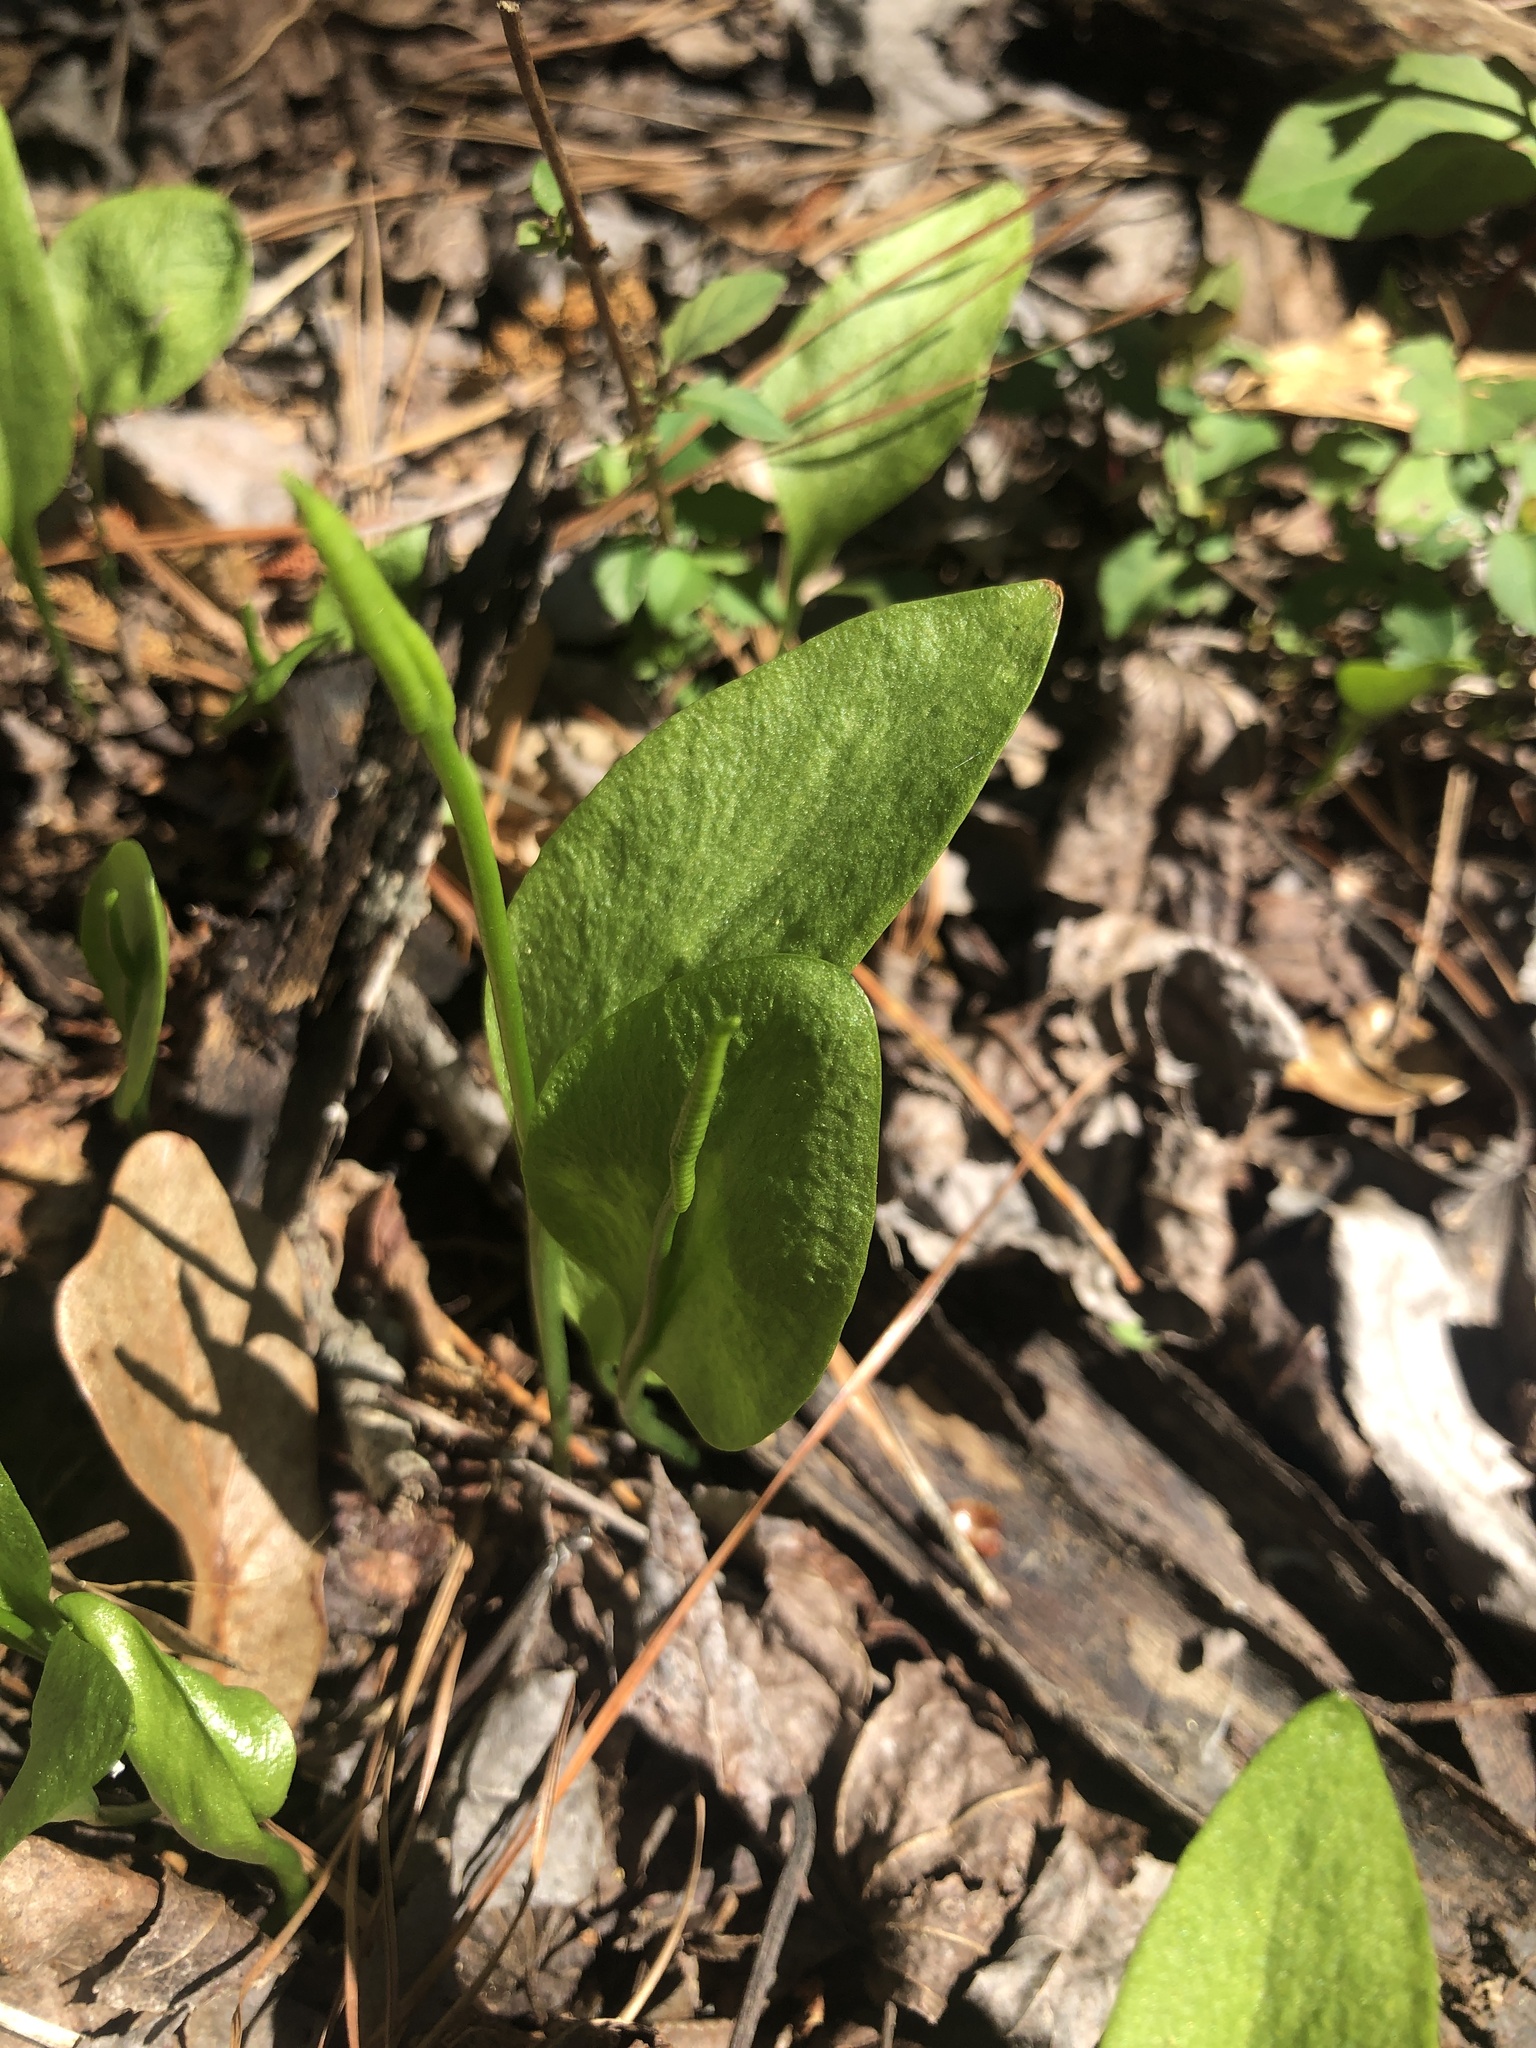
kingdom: Plantae
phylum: Tracheophyta
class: Polypodiopsida
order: Ophioglossales
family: Ophioglossaceae
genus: Ophioglossum
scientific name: Ophioglossum vulgatum
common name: Adder's-tongue
